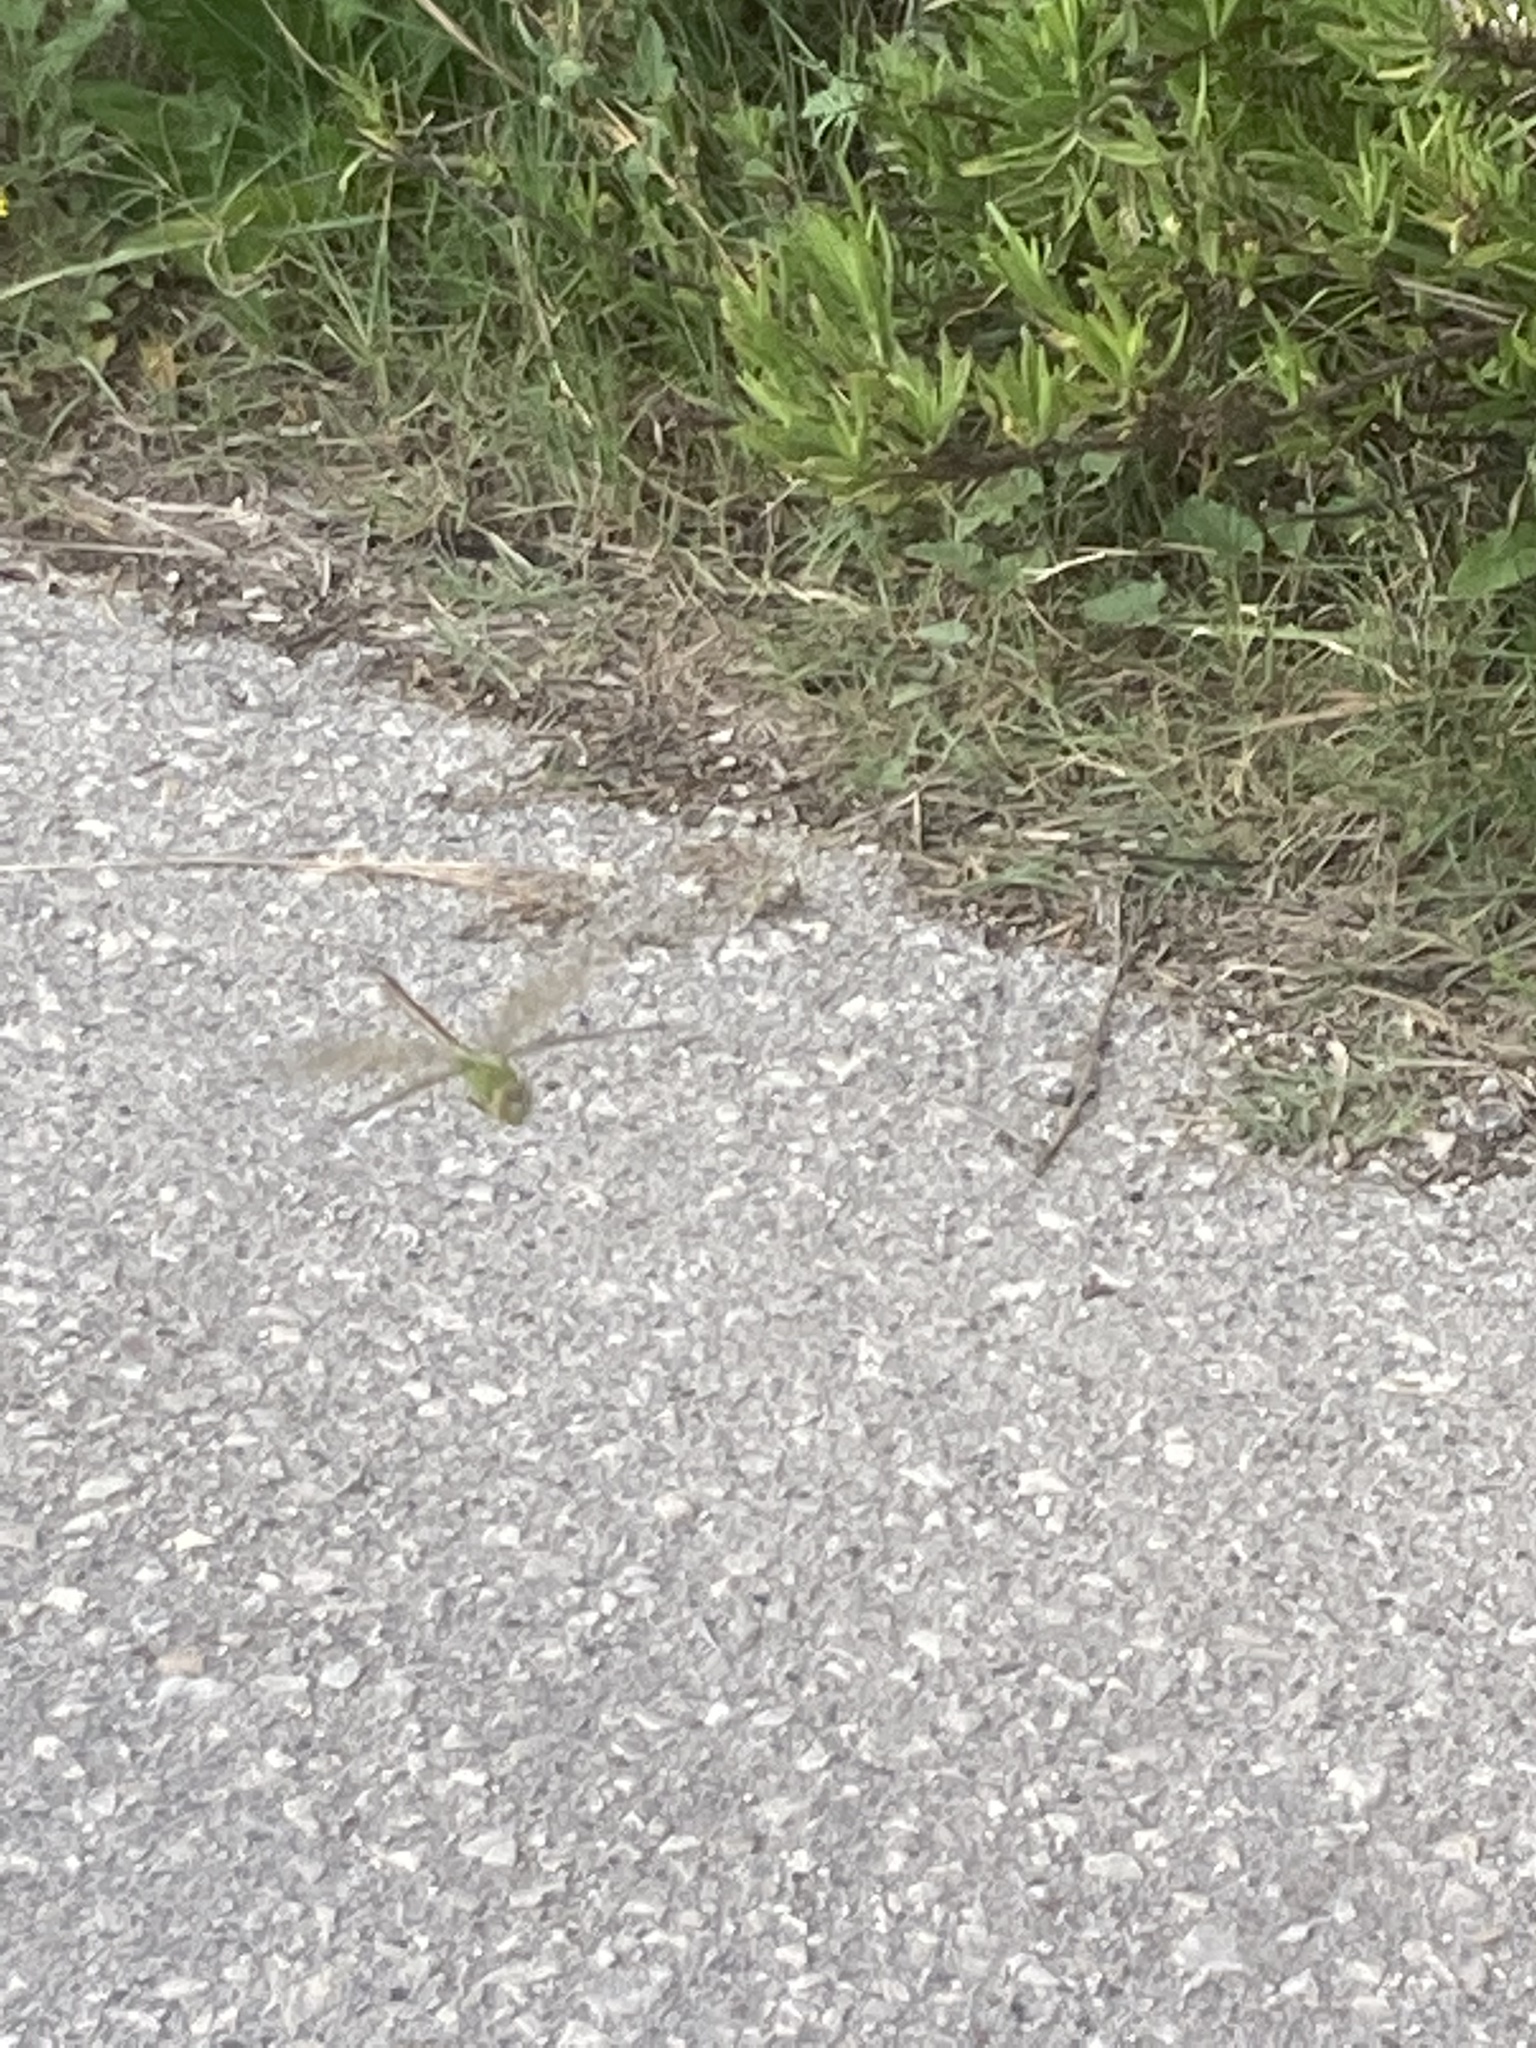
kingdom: Animalia
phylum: Arthropoda
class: Insecta
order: Odonata
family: Aeshnidae
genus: Anax
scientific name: Anax imperator
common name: Emperor dragonfly
